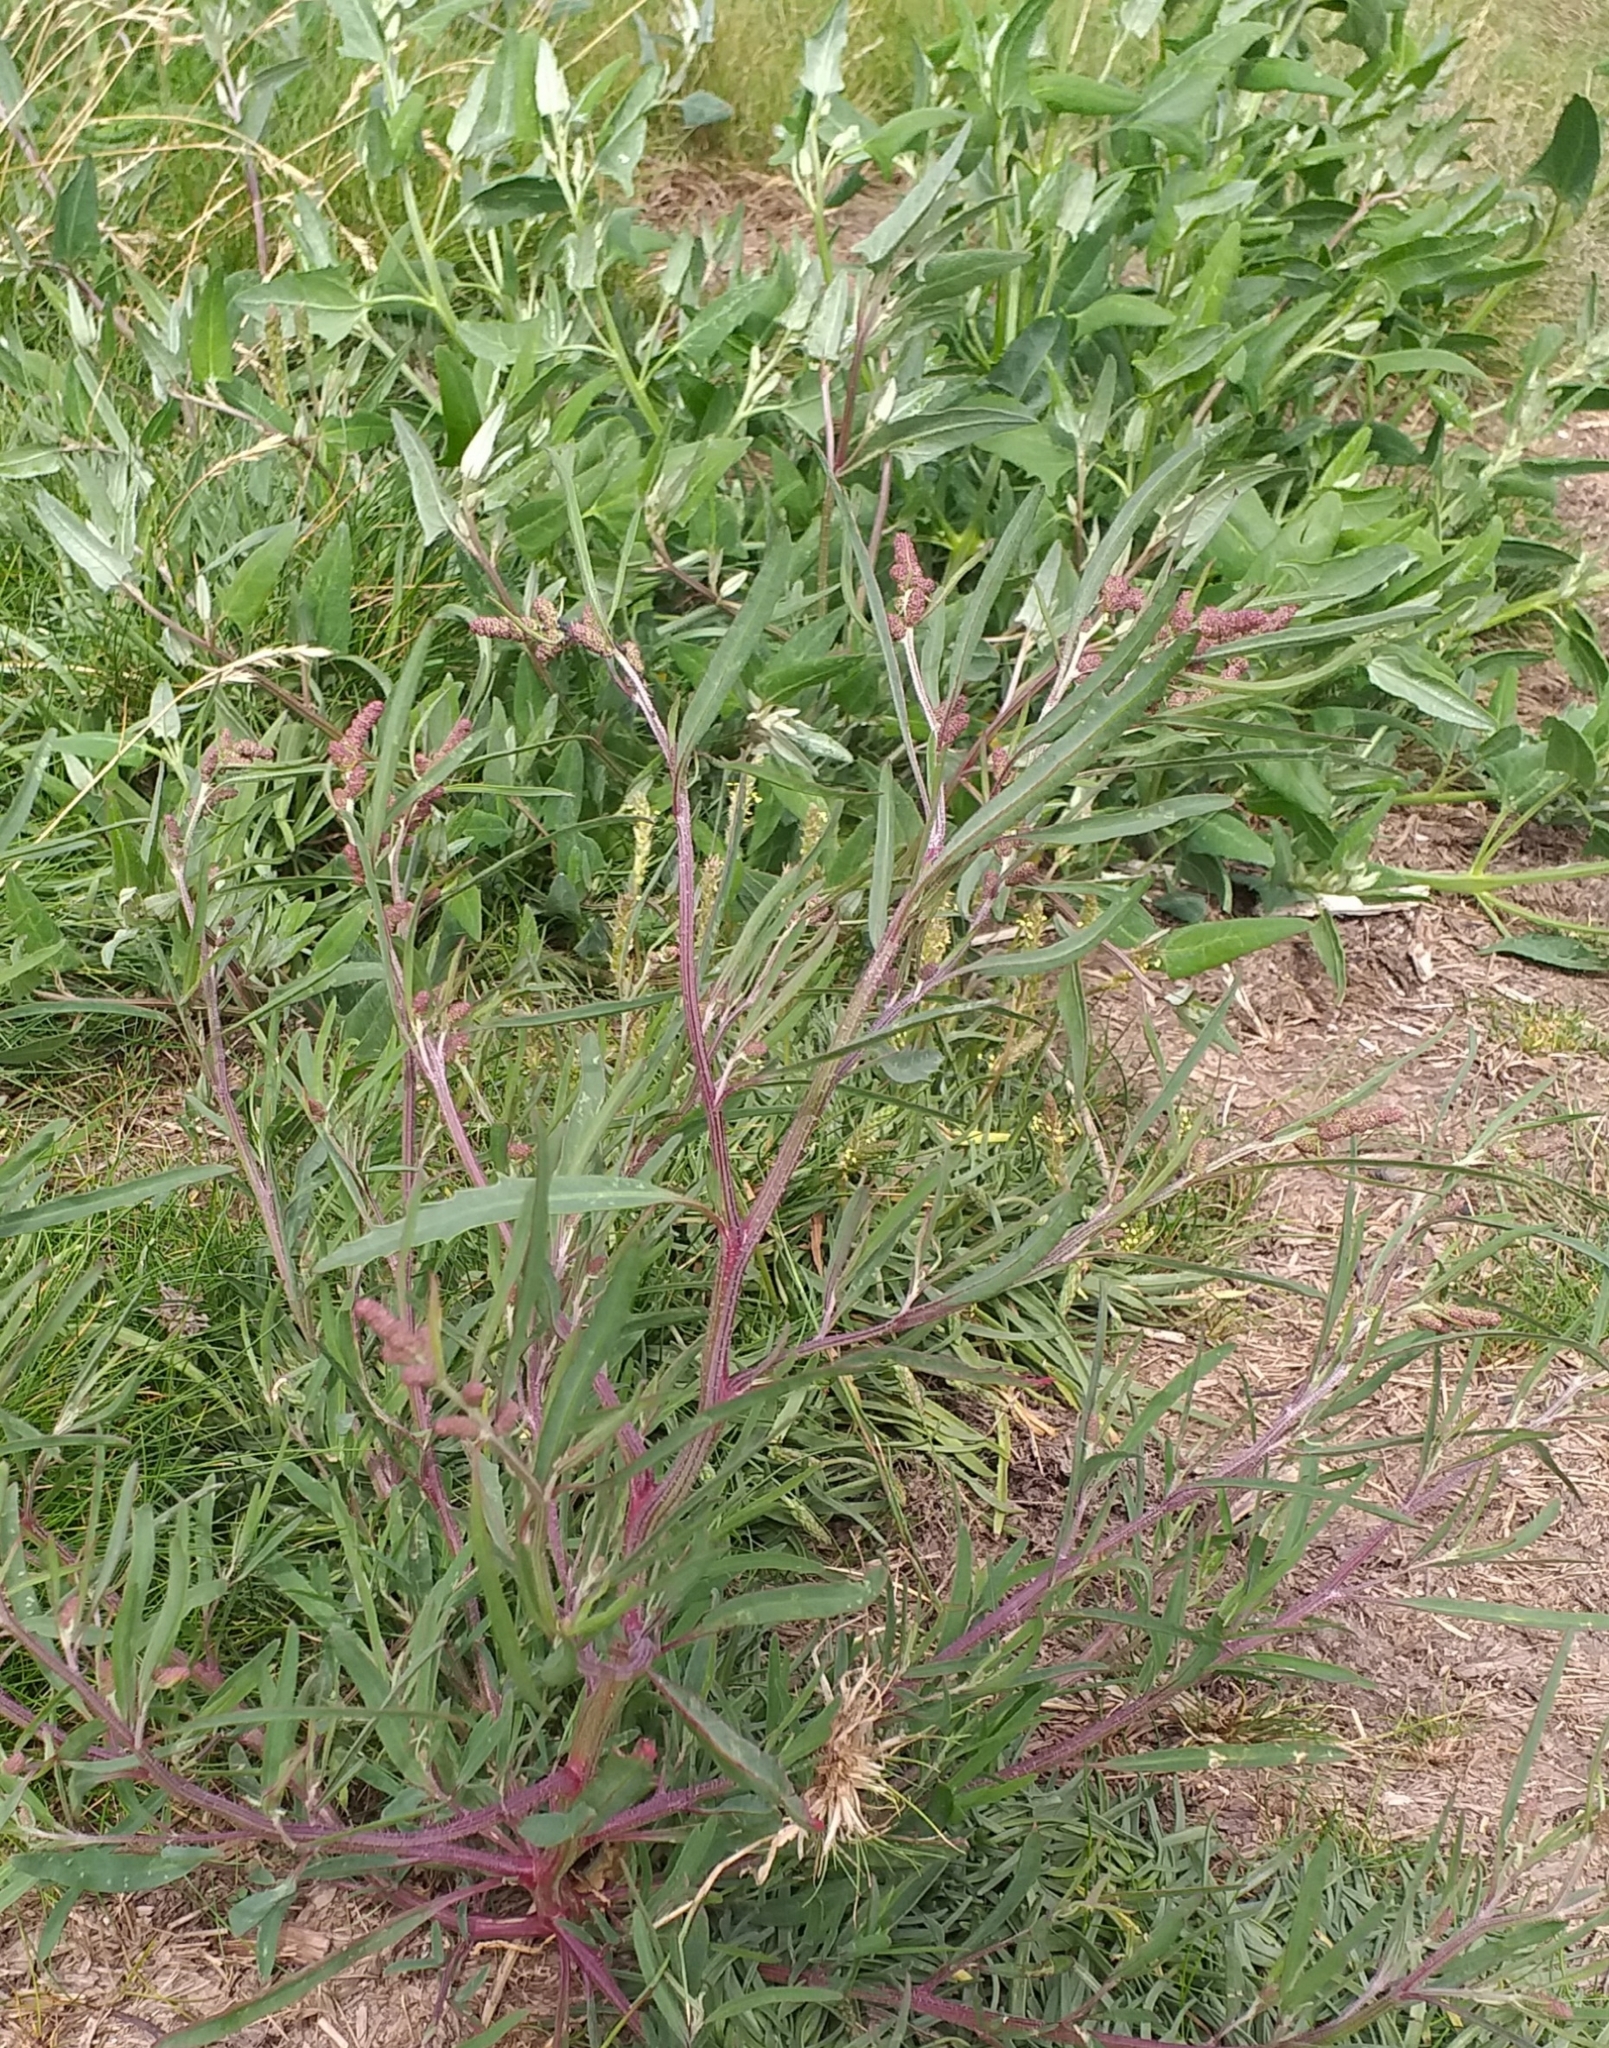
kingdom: Plantae
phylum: Tracheophyta
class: Magnoliopsida
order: Caryophyllales
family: Amaranthaceae
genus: Atriplex
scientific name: Atriplex littoralis
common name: Grass-leaved orache
